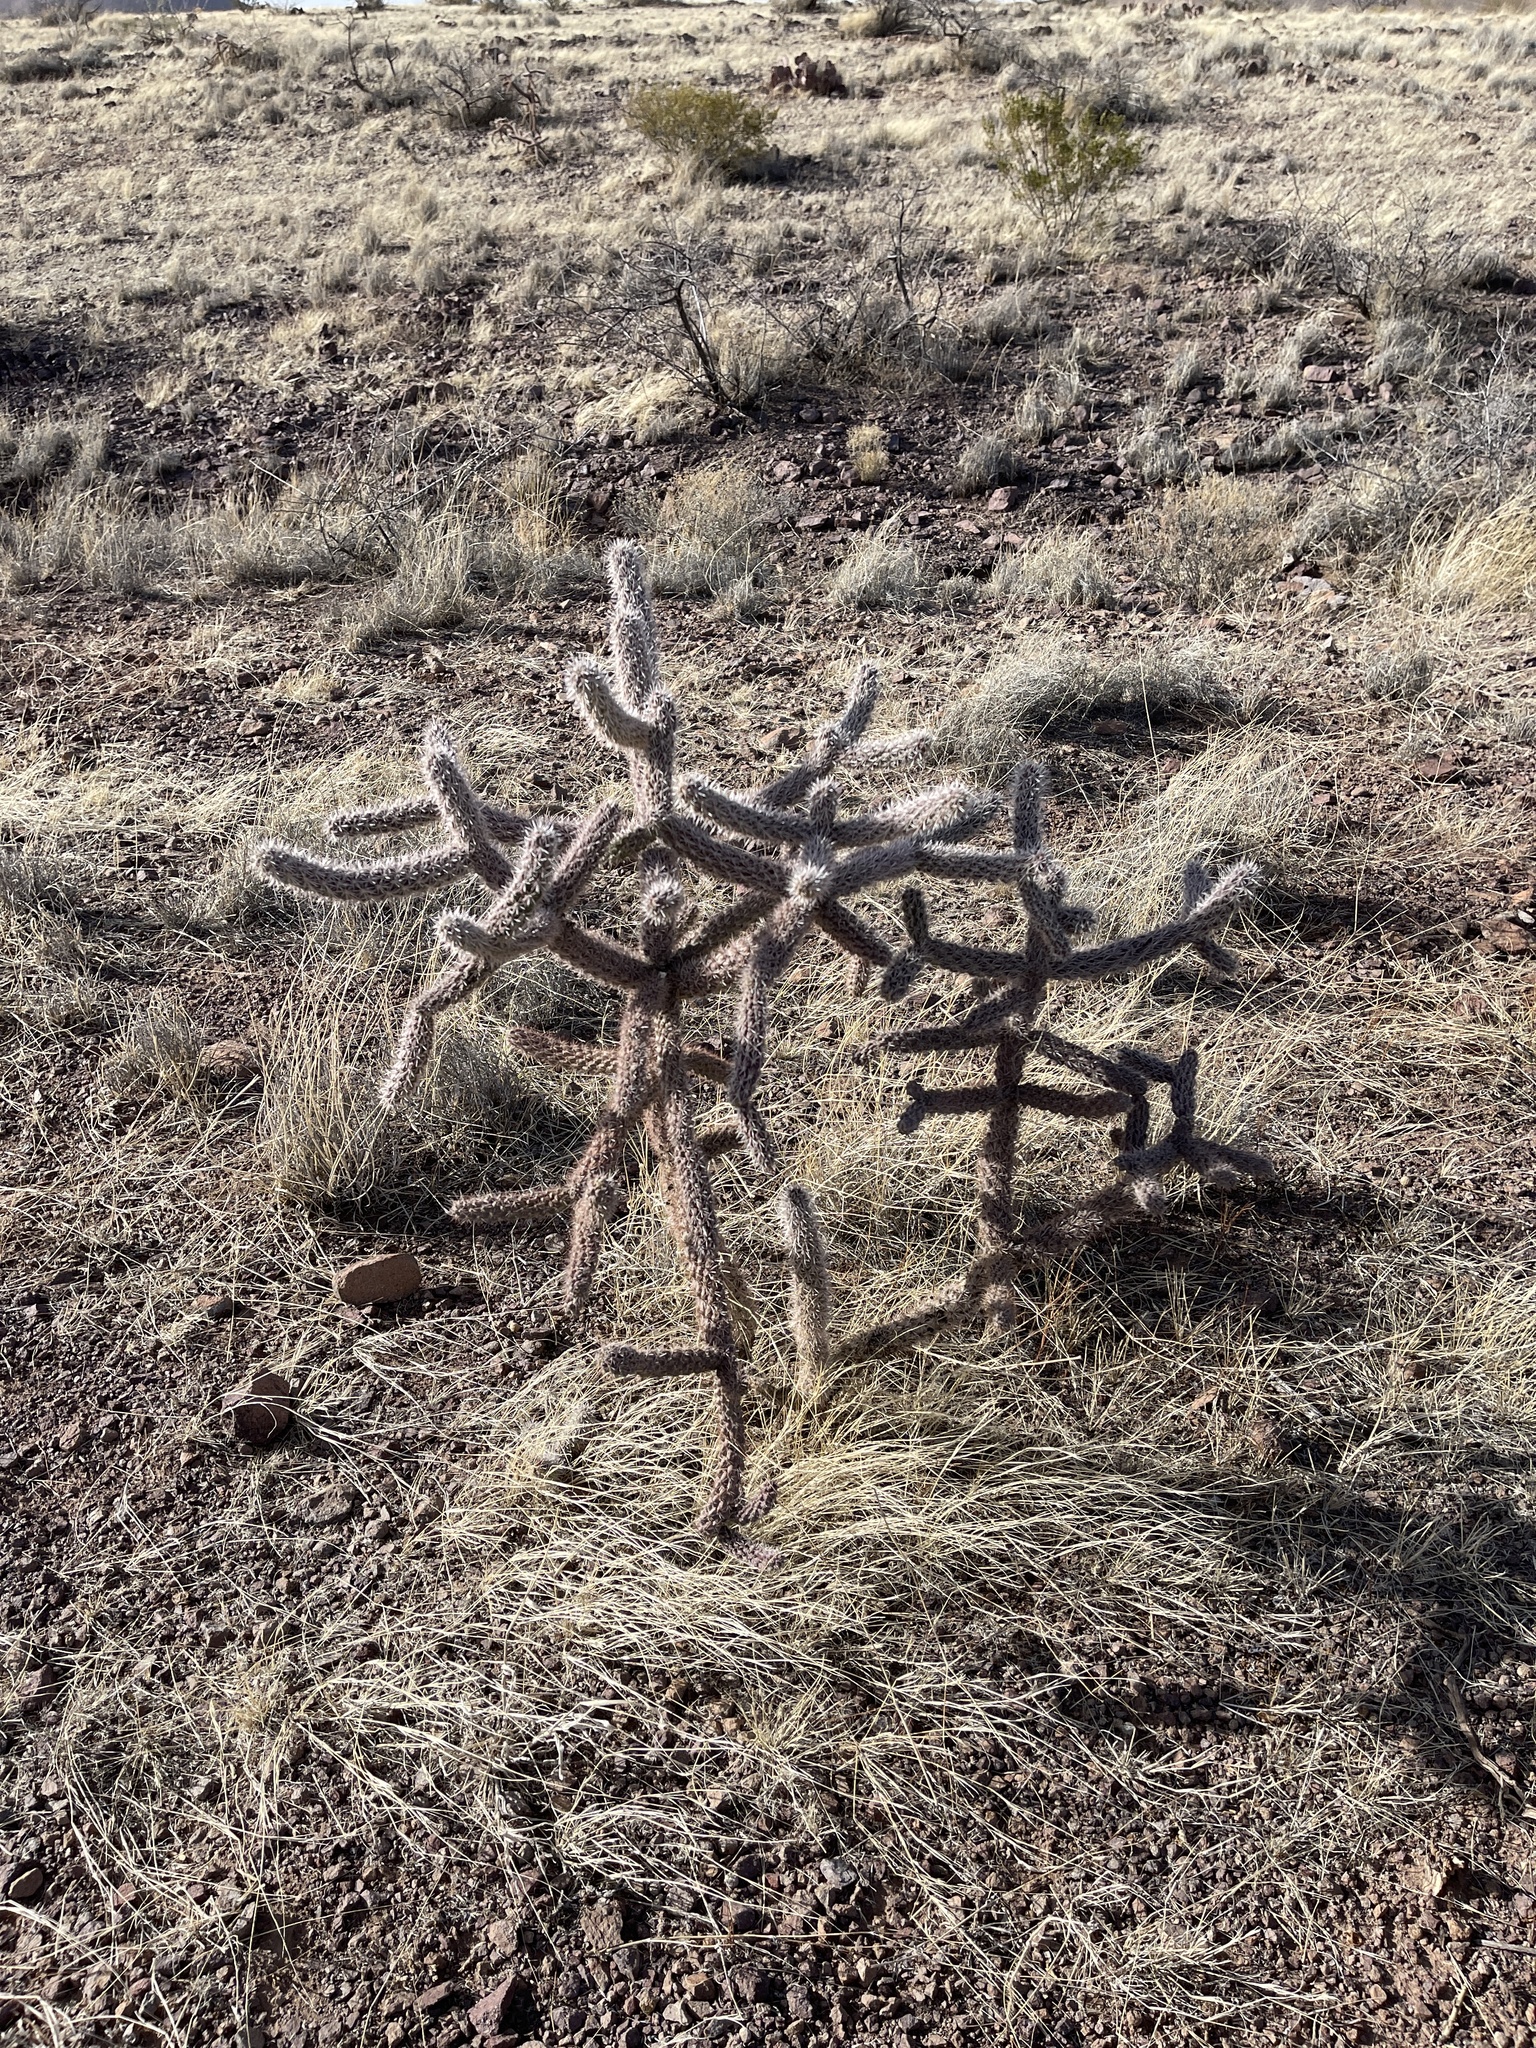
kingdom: Plantae
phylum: Tracheophyta
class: Magnoliopsida
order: Caryophyllales
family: Cactaceae
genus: Cylindropuntia
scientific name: Cylindropuntia imbricata
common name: Candelabrum cactus
